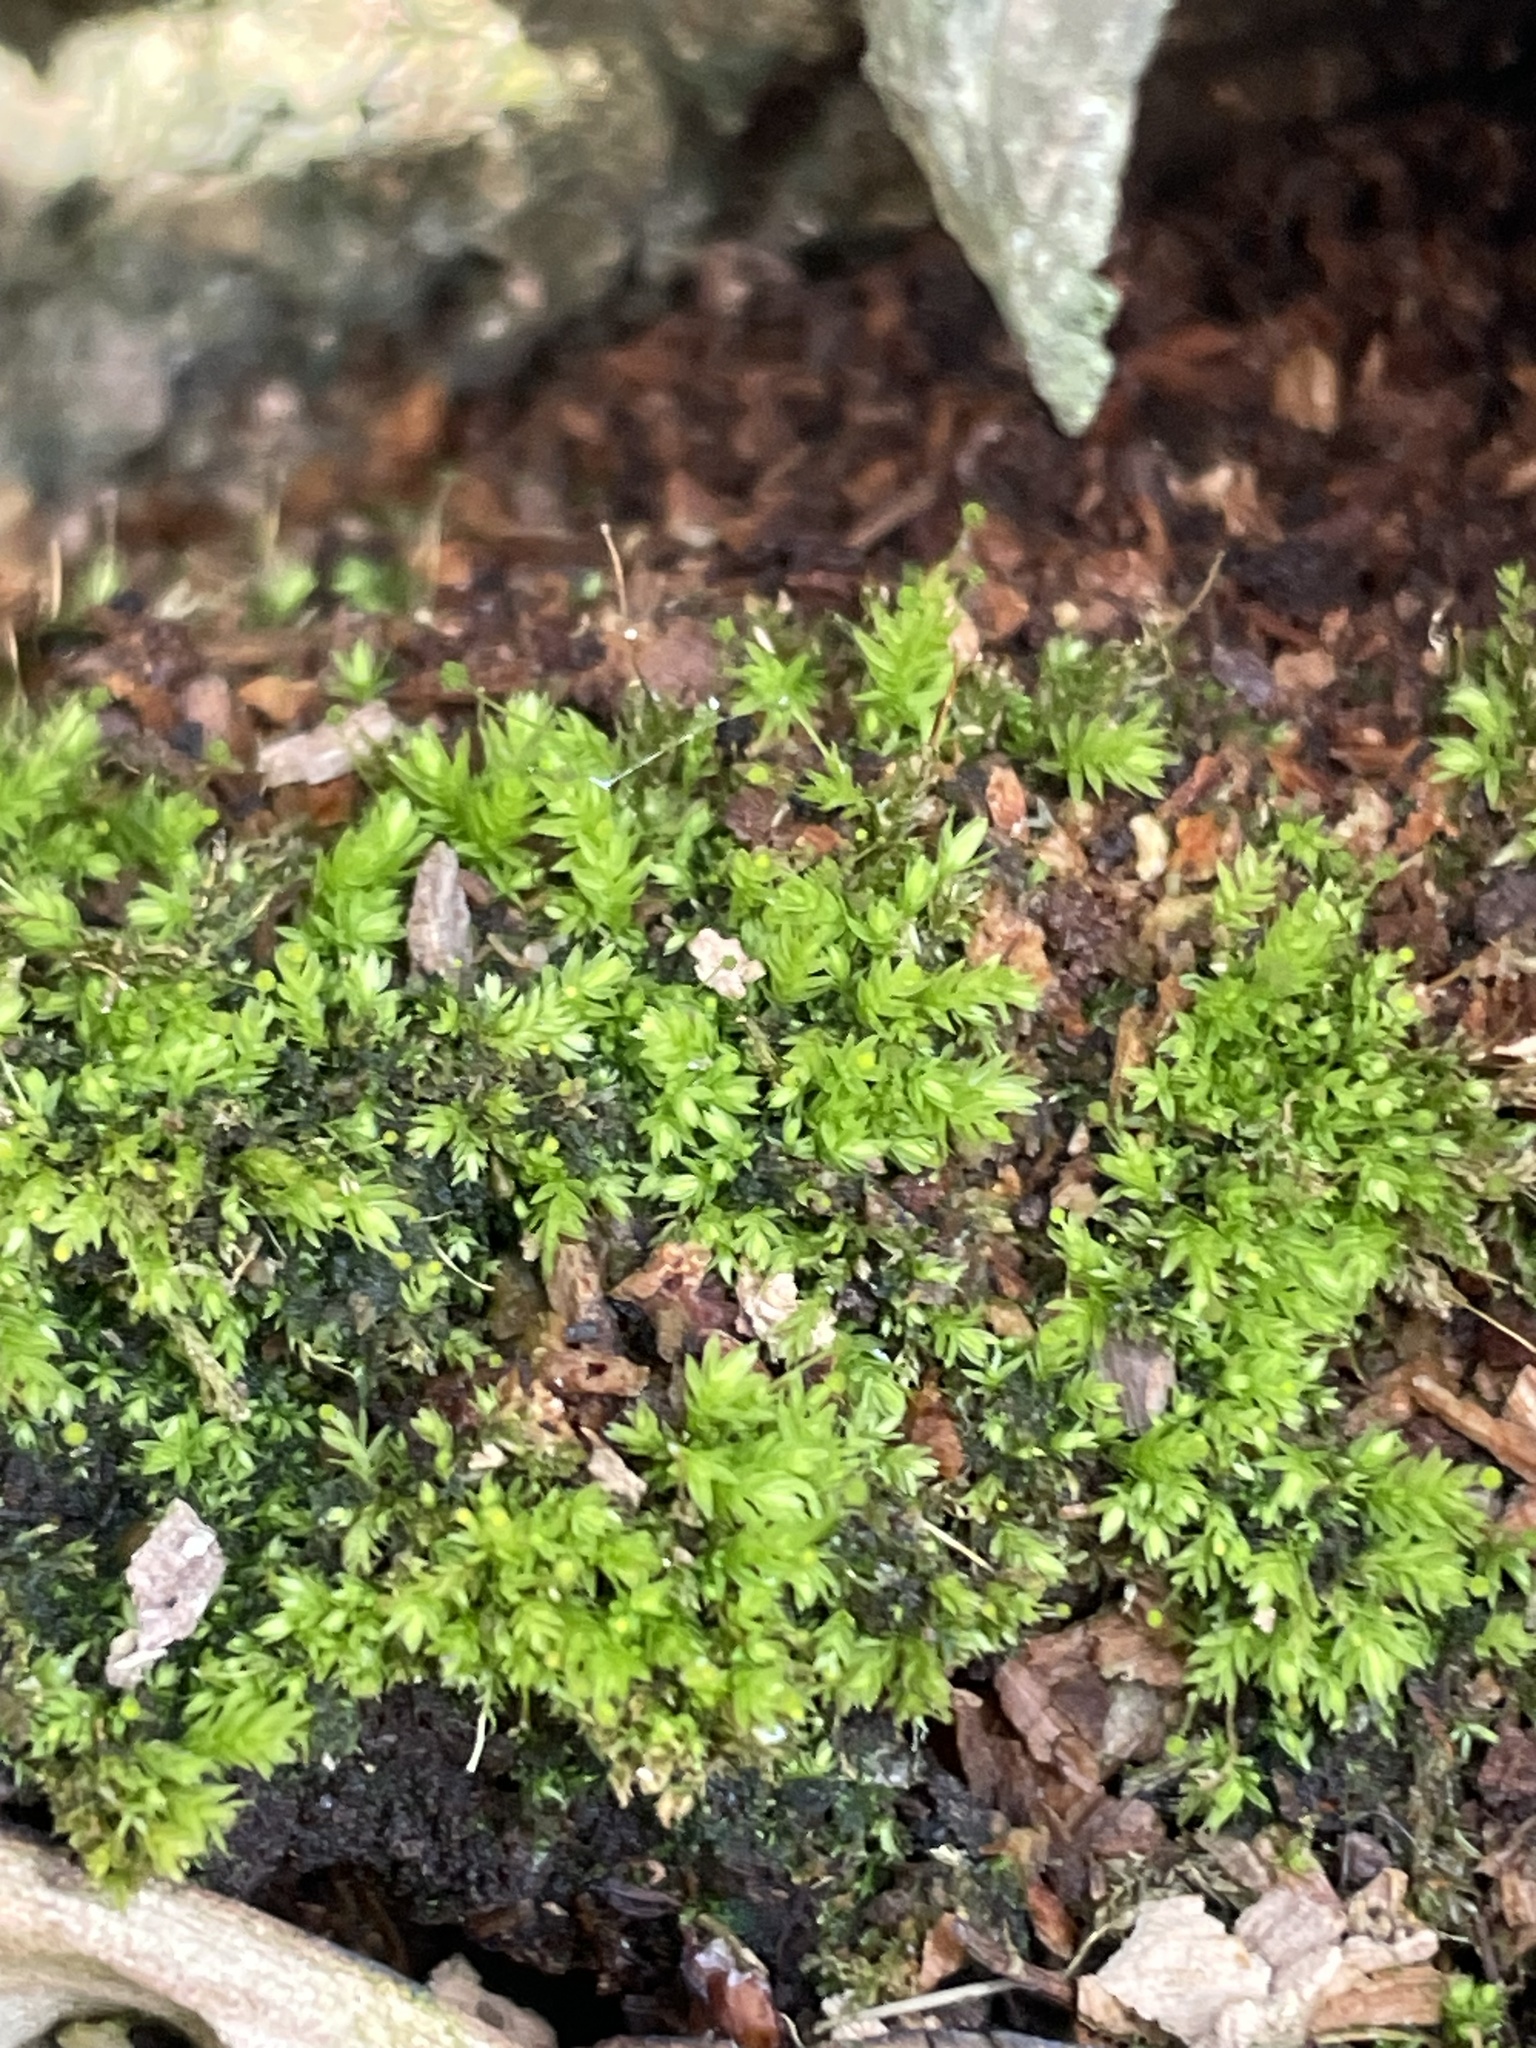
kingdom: Plantae
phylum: Bryophyta
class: Bryopsida
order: Aulacomniales
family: Aulacomniaceae
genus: Aulacomnium
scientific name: Aulacomnium androgynum
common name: Little groove moss
